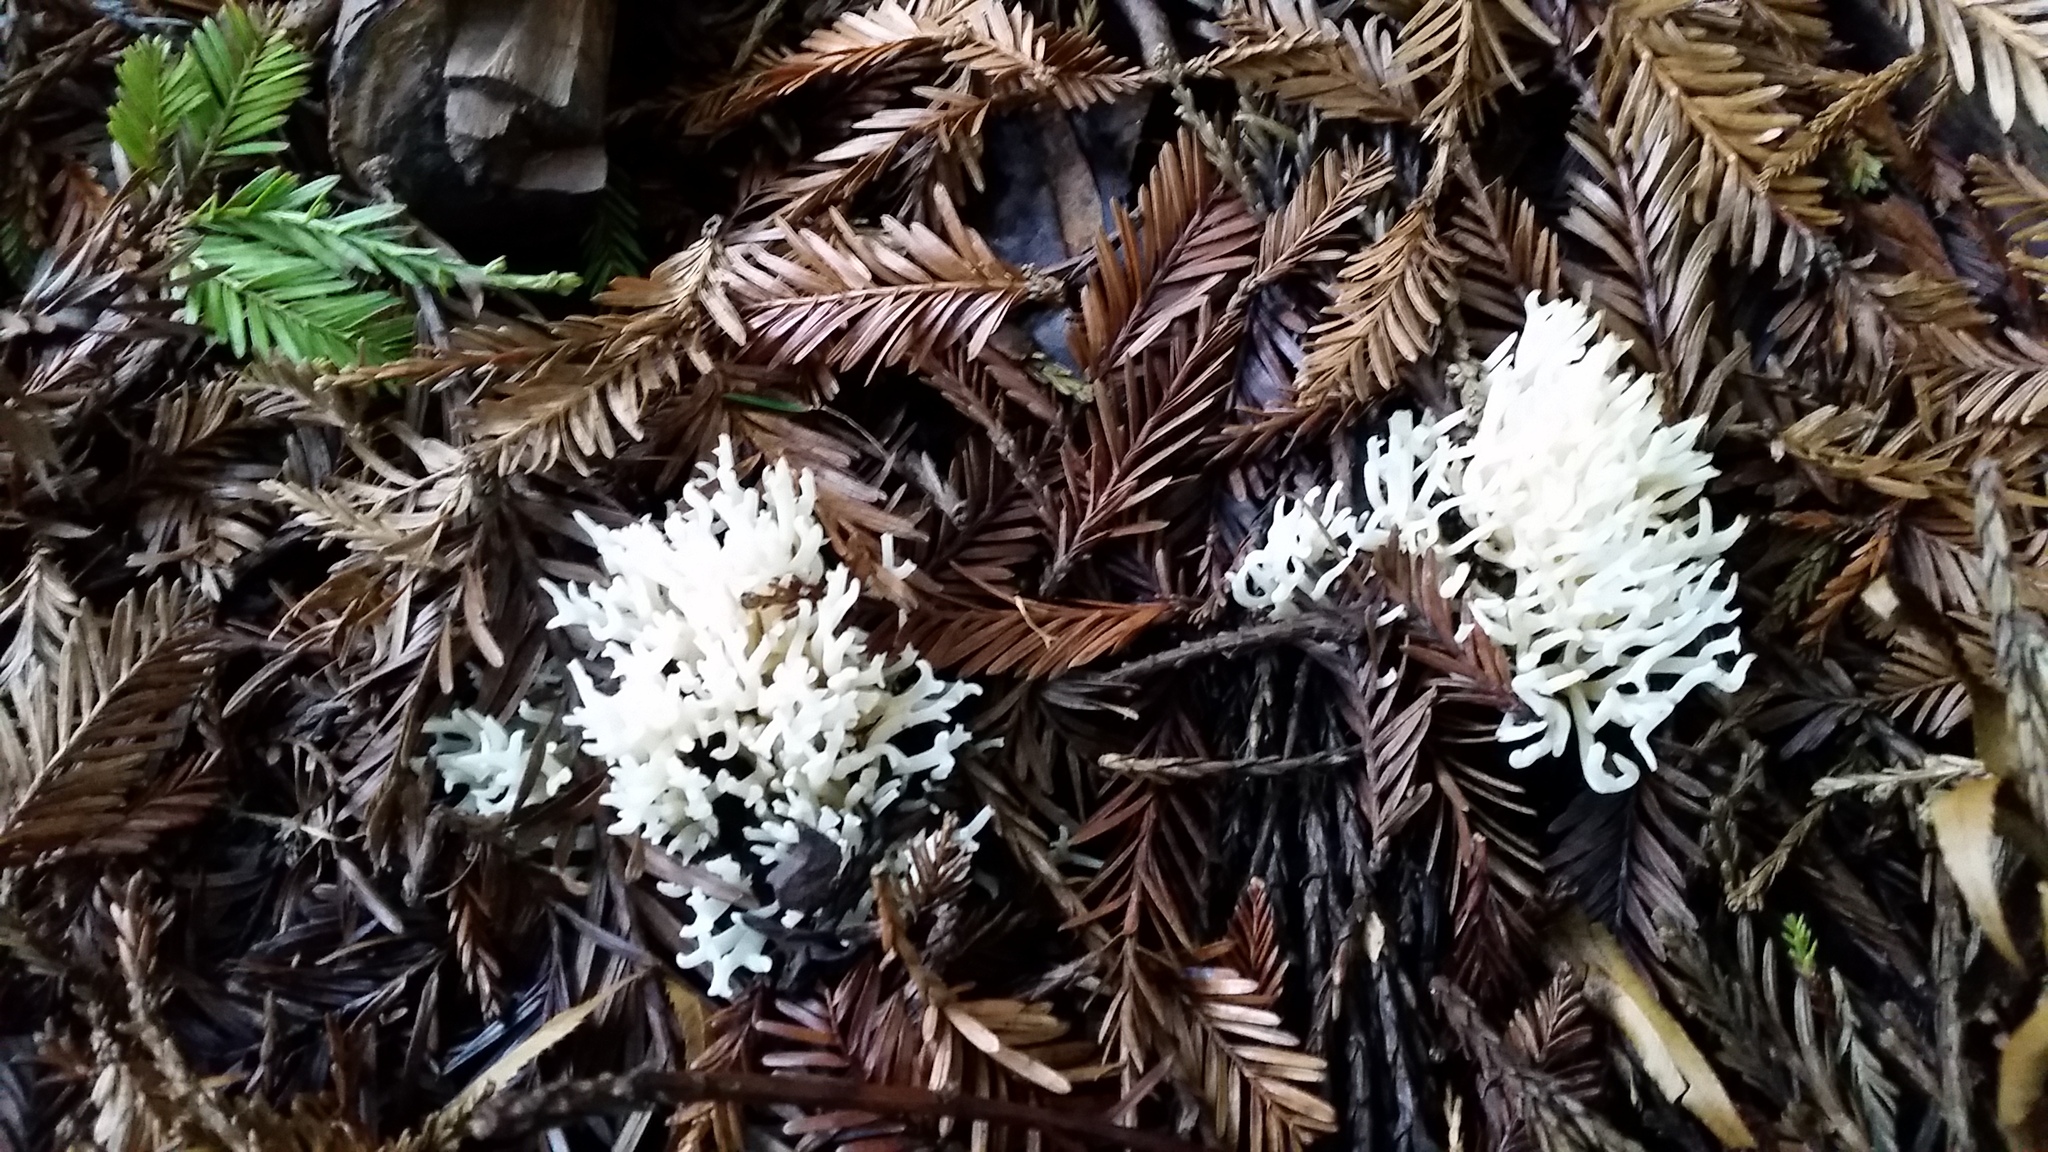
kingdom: Fungi
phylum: Basidiomycota
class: Agaricomycetes
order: Agaricales
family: Clavariaceae
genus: Ramariopsis
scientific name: Ramariopsis kunzei
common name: Ivory coral
